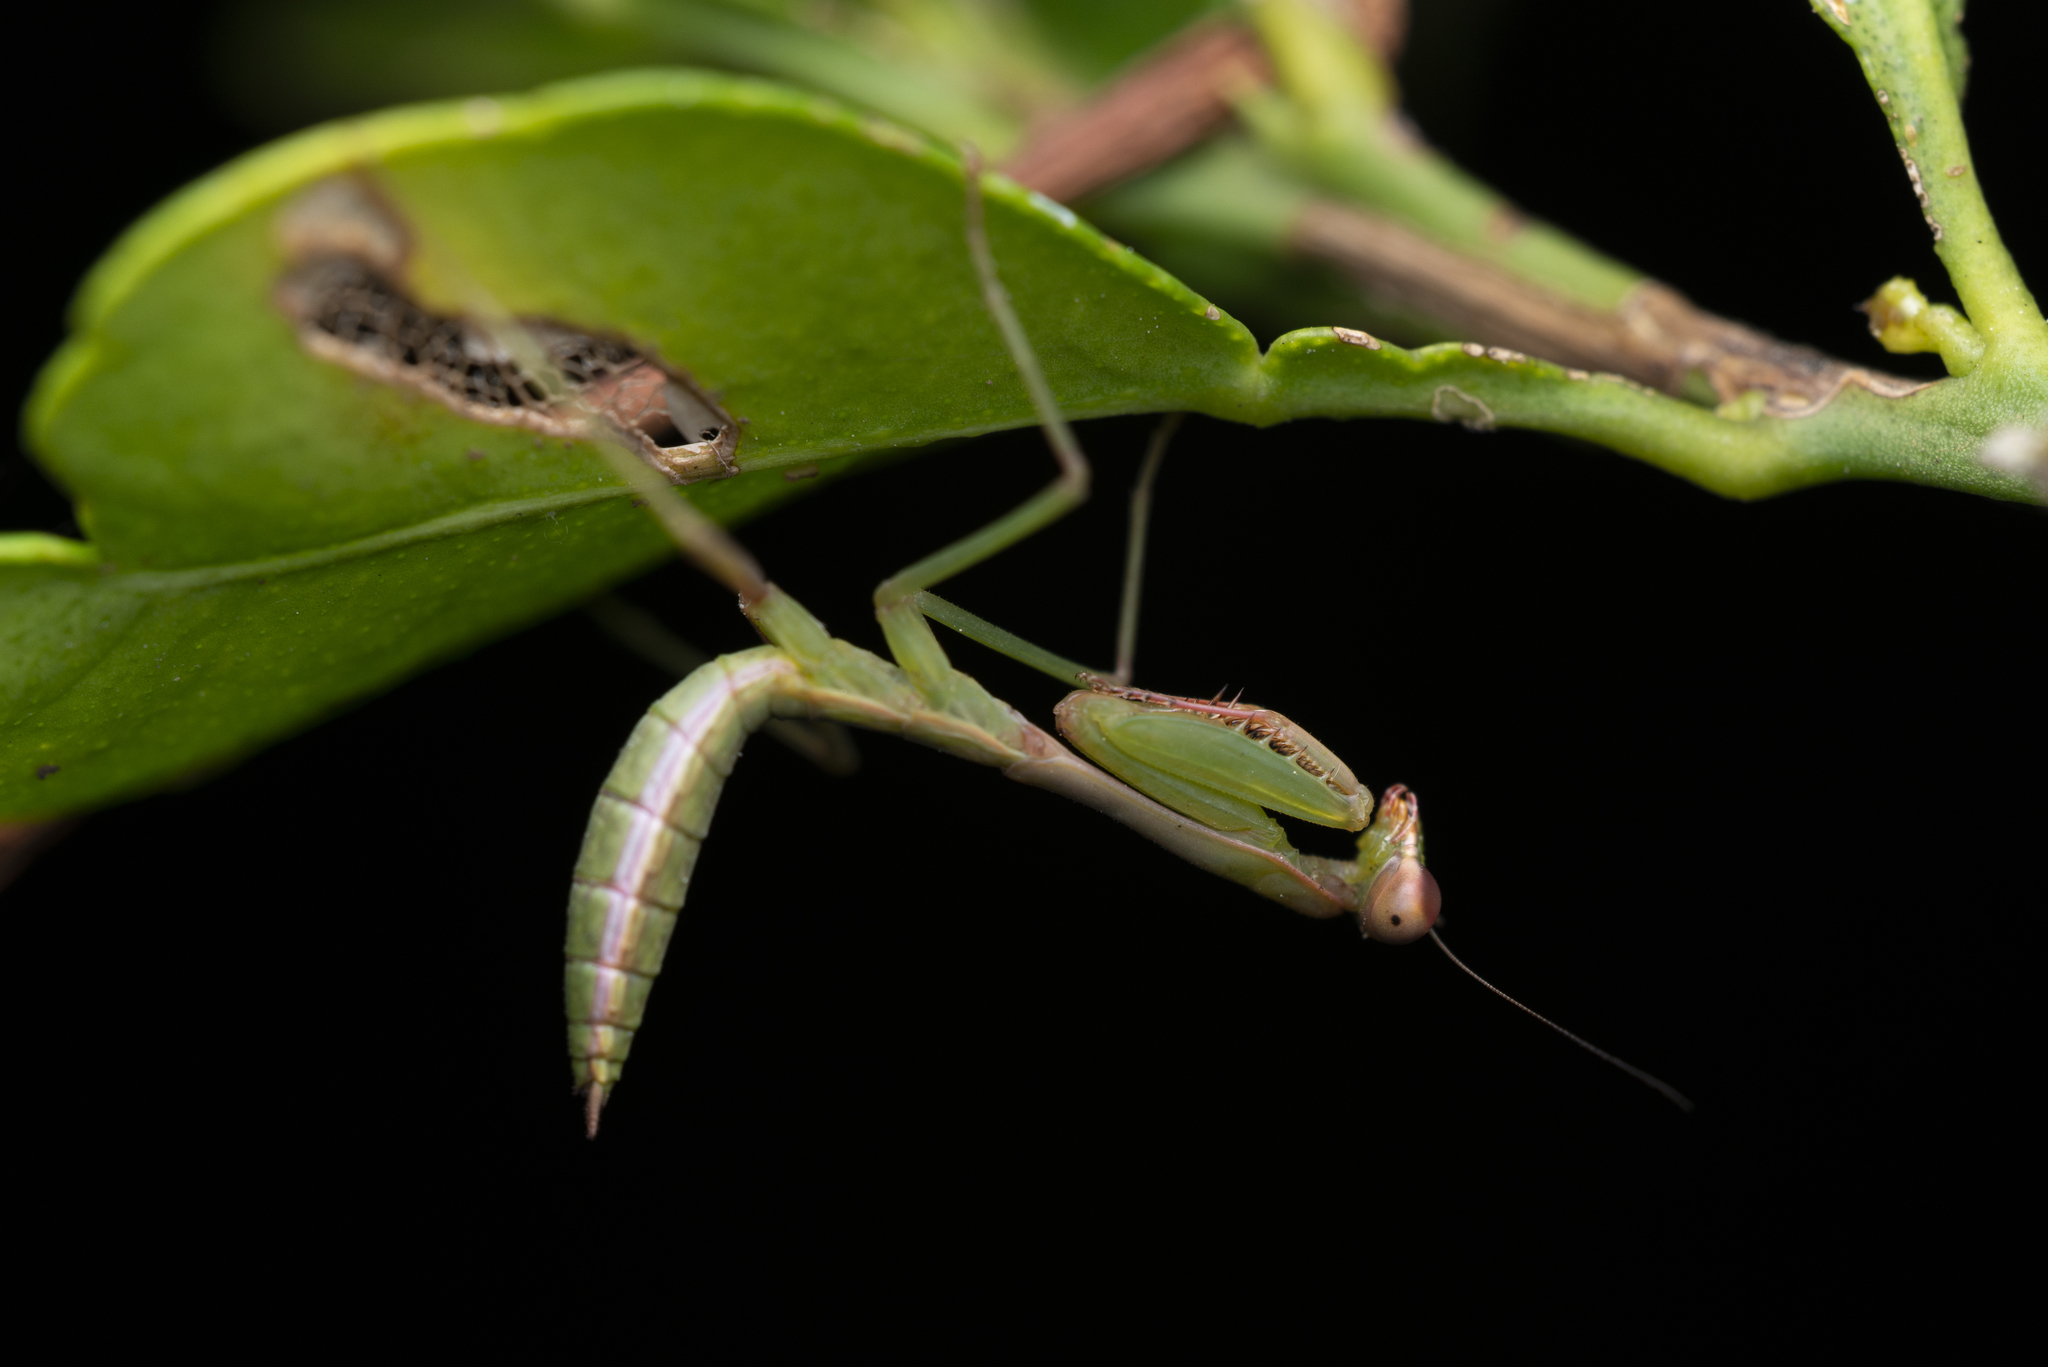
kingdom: Animalia
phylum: Arthropoda
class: Insecta
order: Mantodea
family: Mantidae
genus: Titanodula
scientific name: Titanodula formosana
